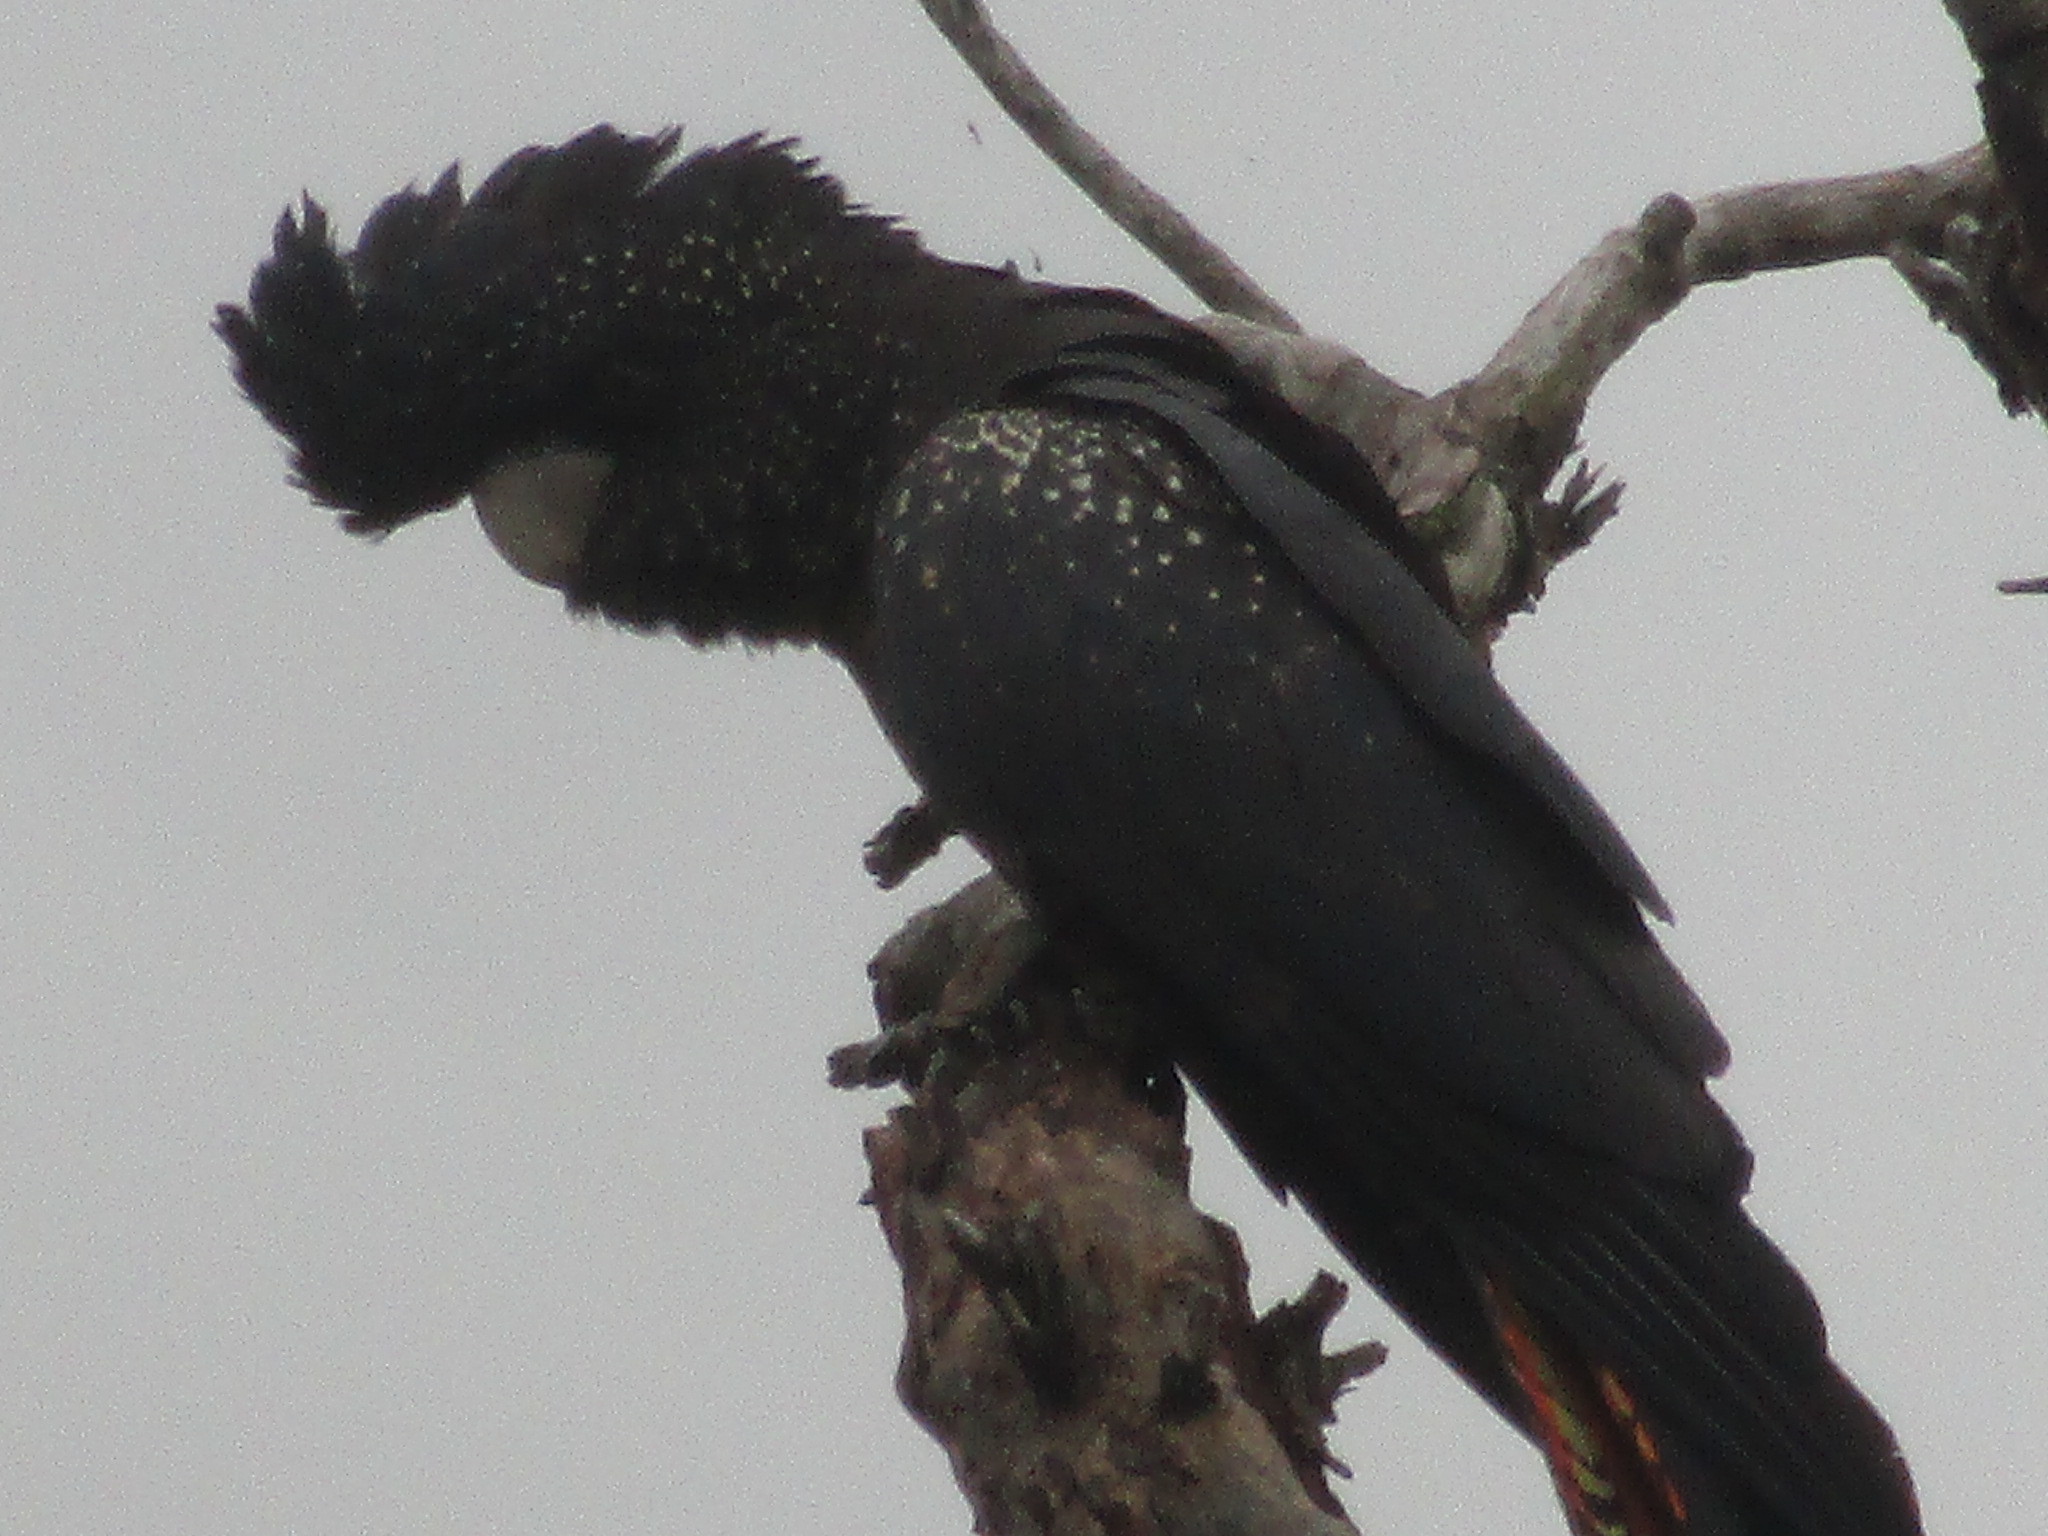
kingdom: Animalia
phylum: Chordata
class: Aves
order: Psittaciformes
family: Psittacidae
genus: Calyptorhynchus
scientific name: Calyptorhynchus banksii
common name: Red-tailed black cockatoo
